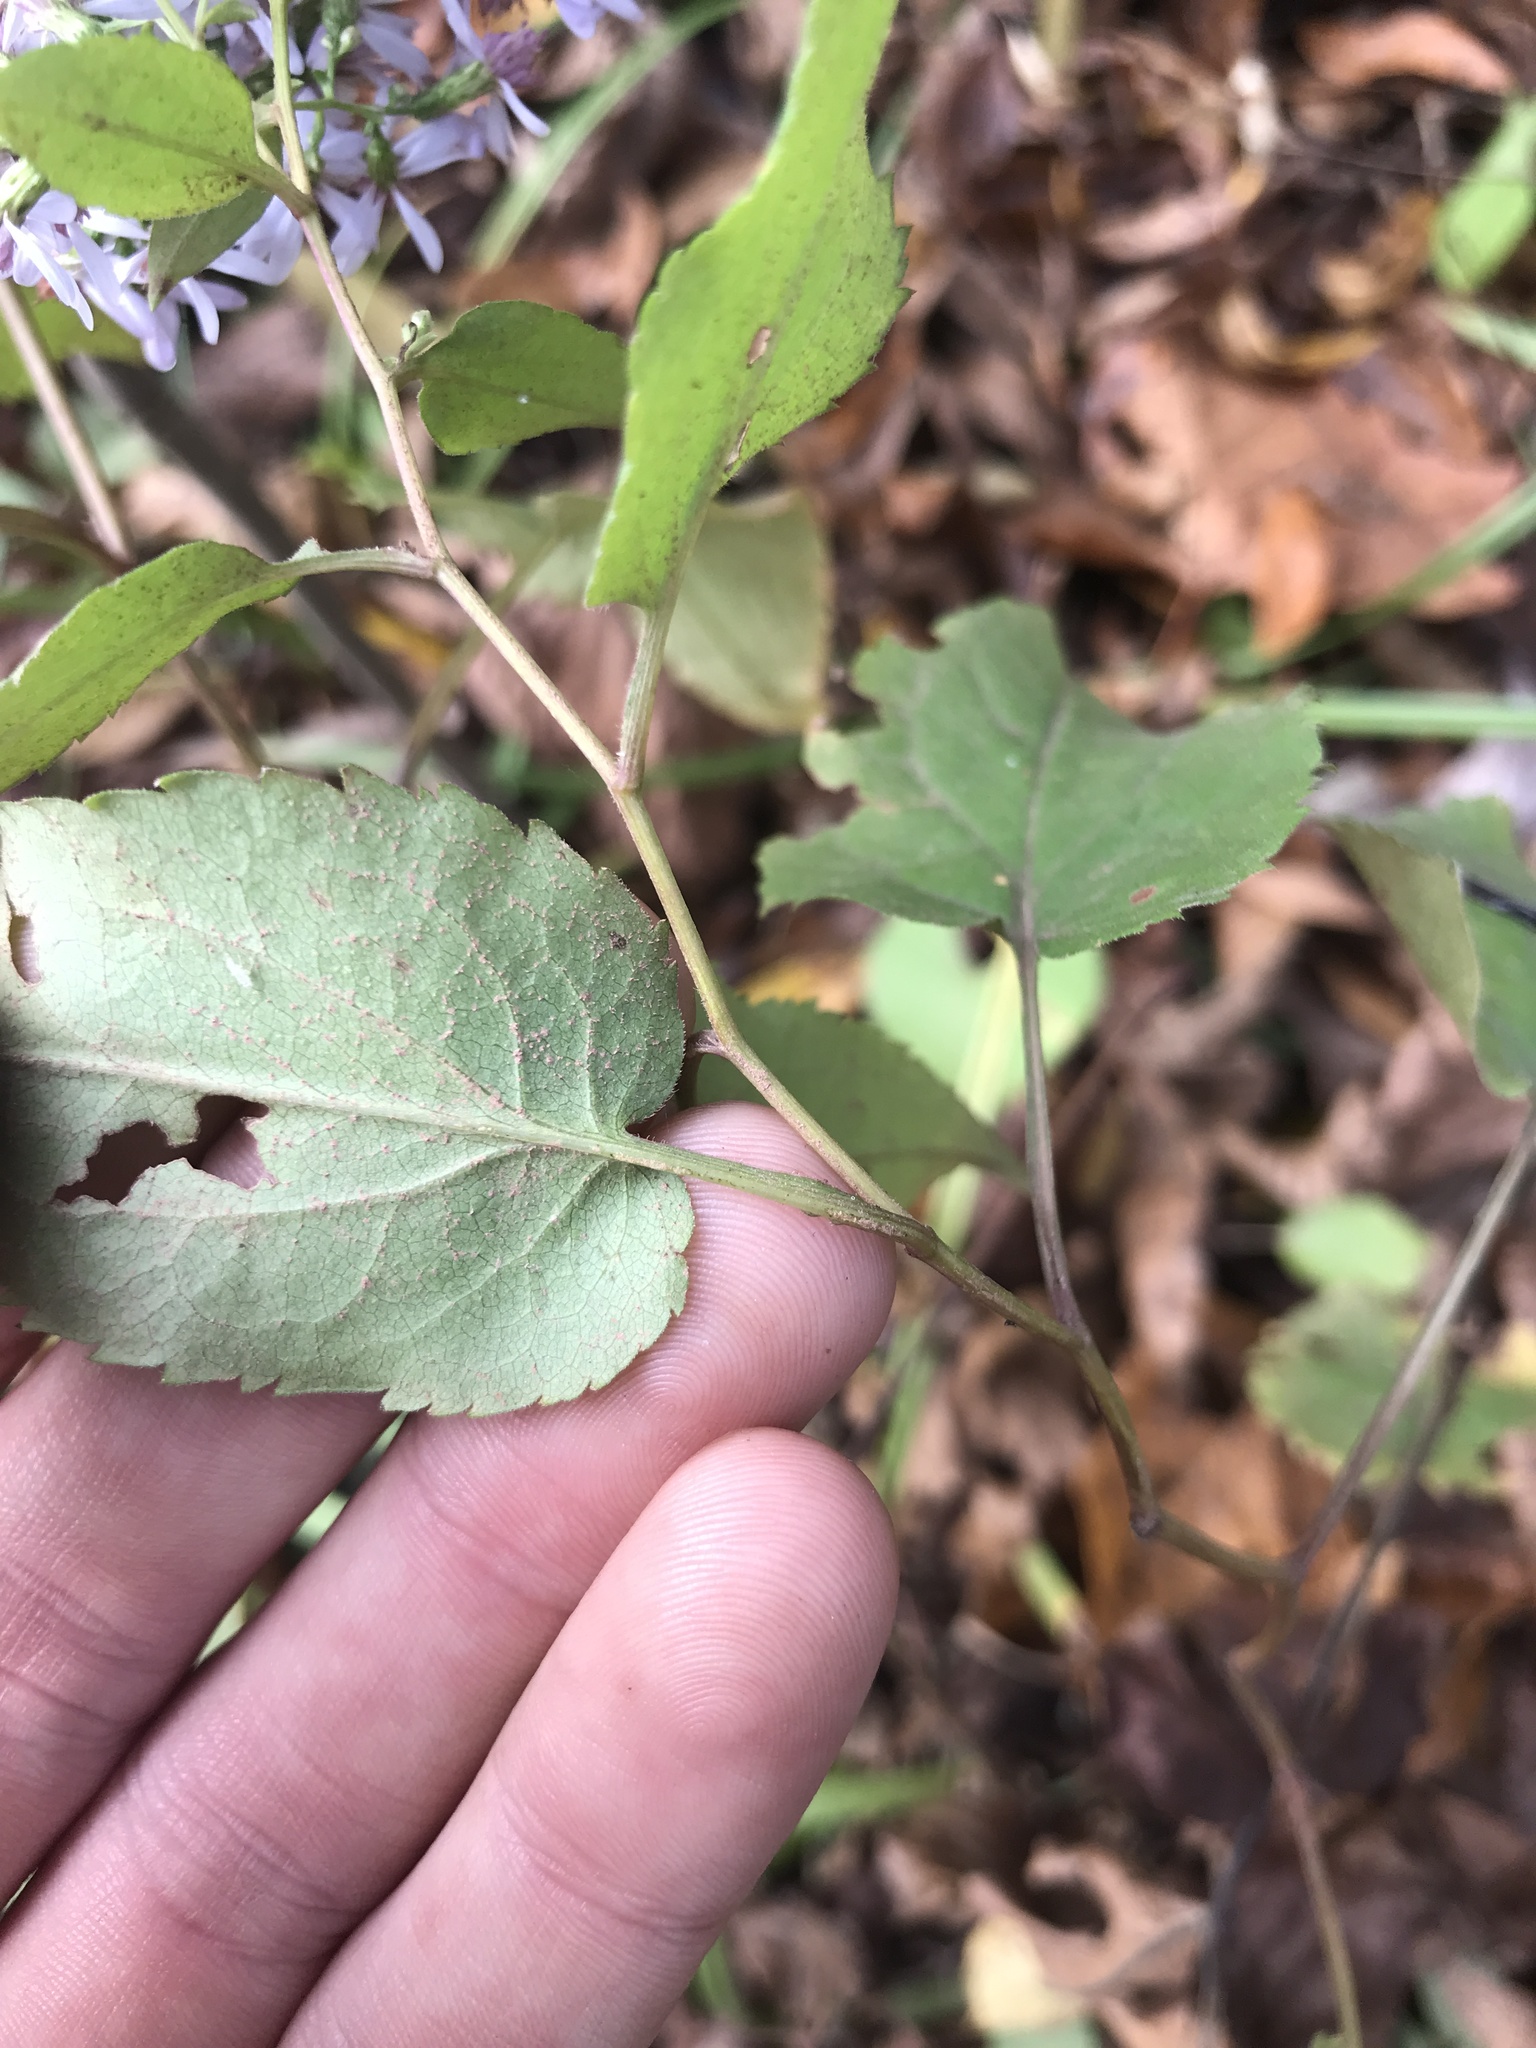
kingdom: Plantae
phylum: Tracheophyta
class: Magnoliopsida
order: Asterales
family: Asteraceae
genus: Symphyotrichum
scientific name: Symphyotrichum cordifolium
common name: Beeweed
